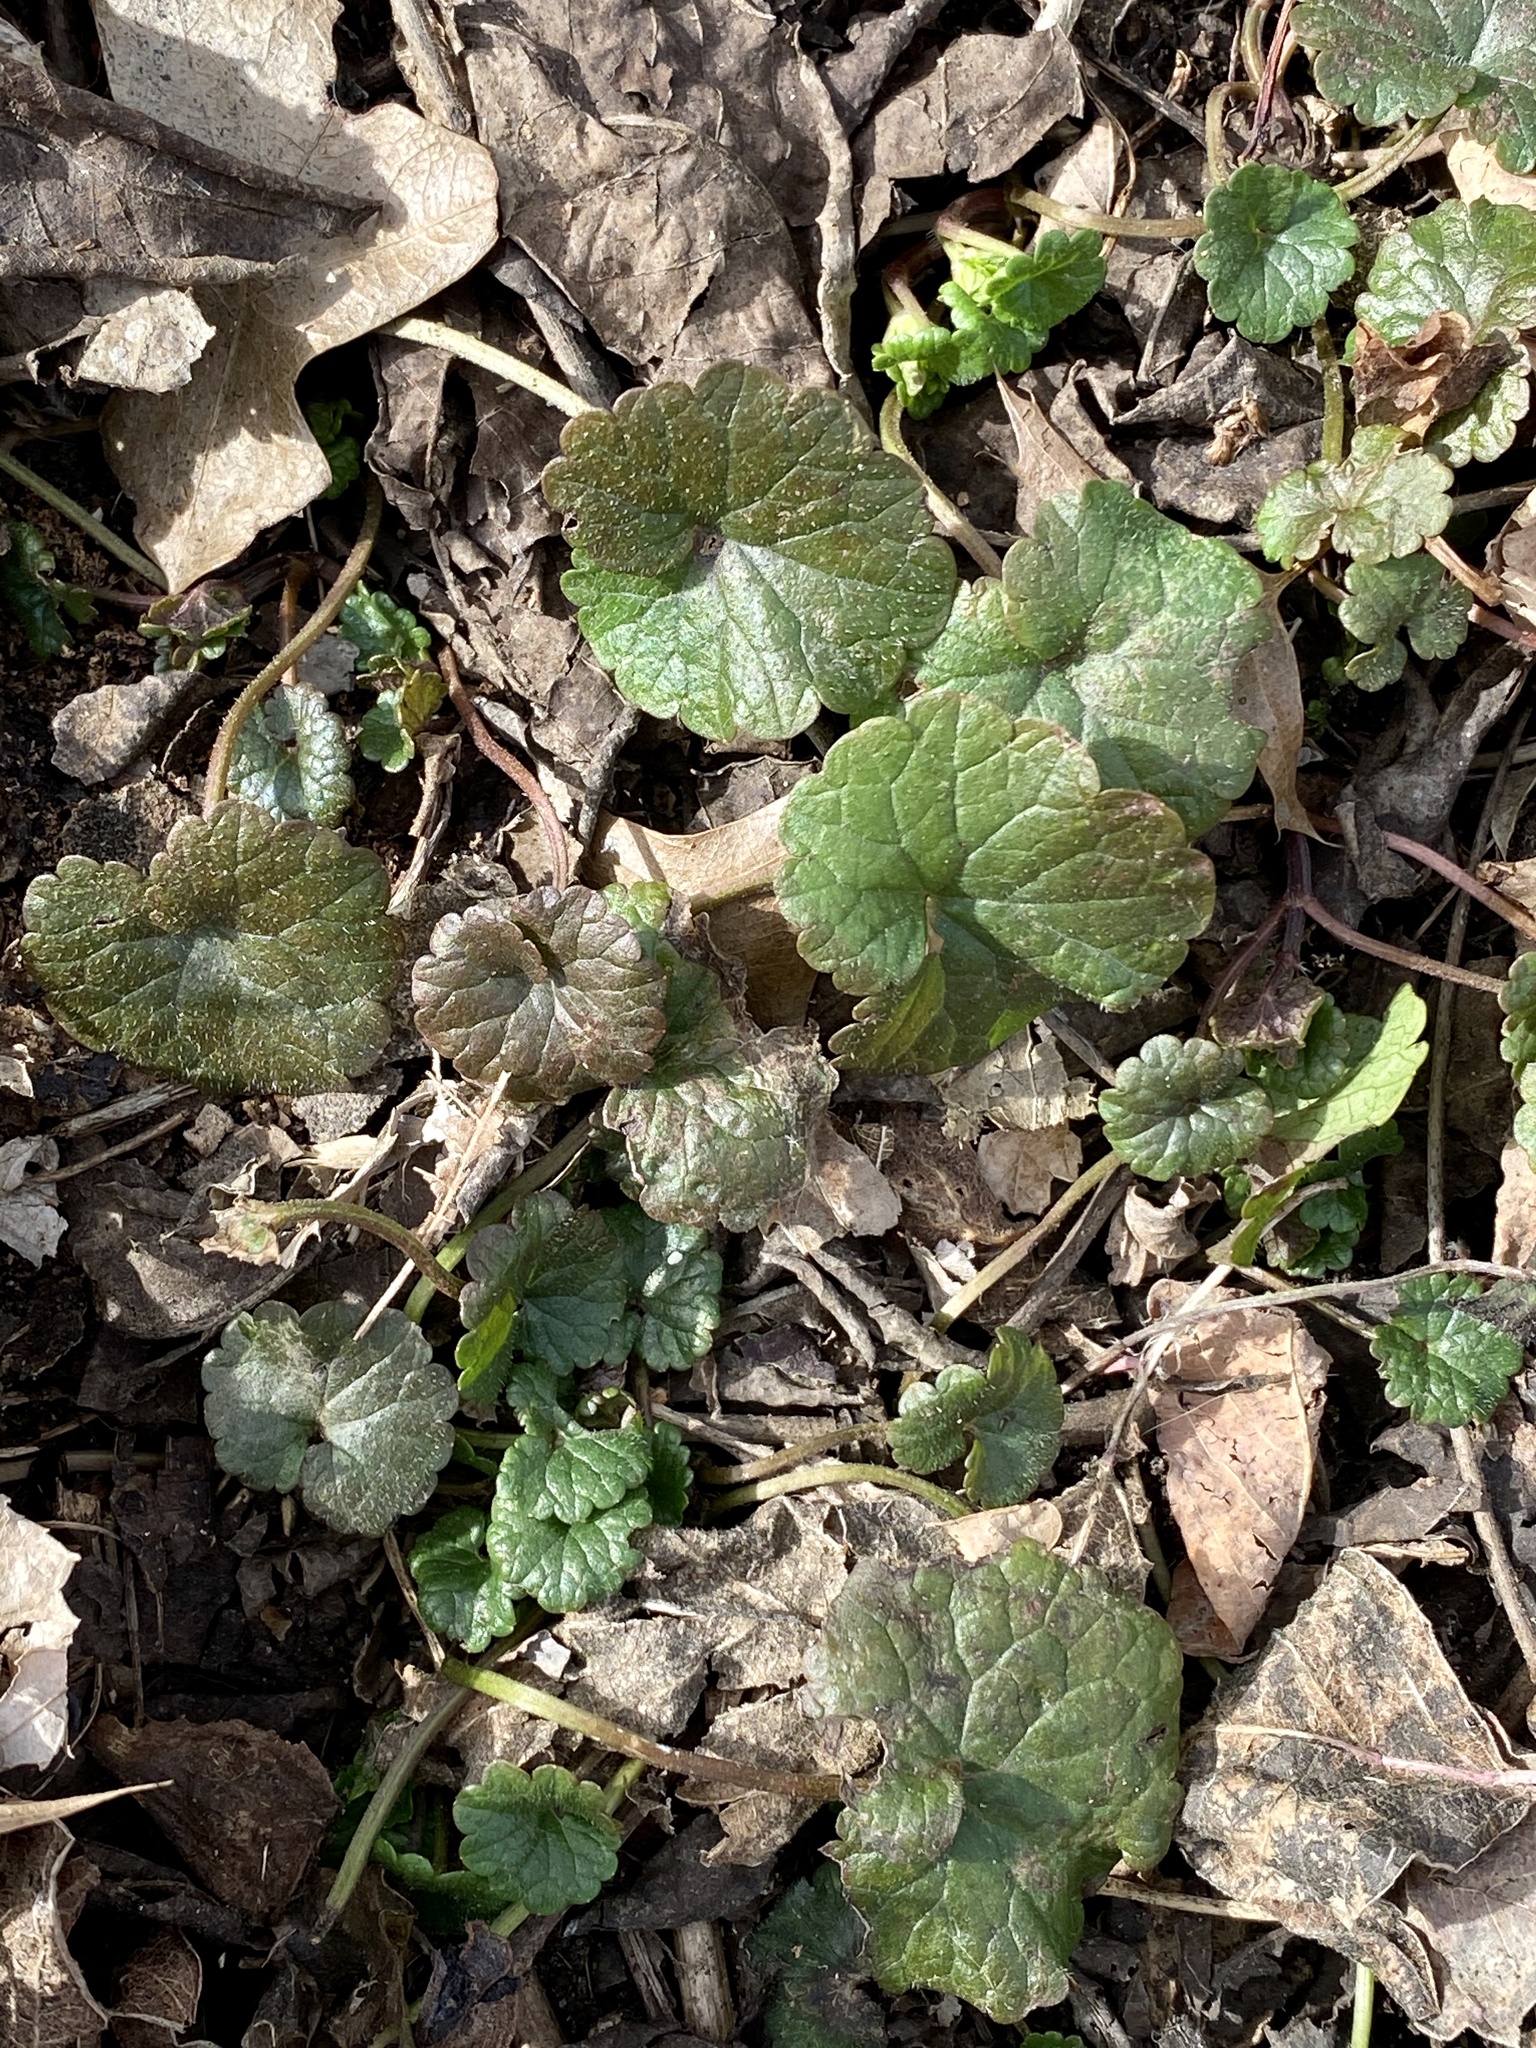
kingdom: Plantae
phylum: Tracheophyta
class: Magnoliopsida
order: Lamiales
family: Lamiaceae
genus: Glechoma
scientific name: Glechoma hederacea
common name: Ground ivy
